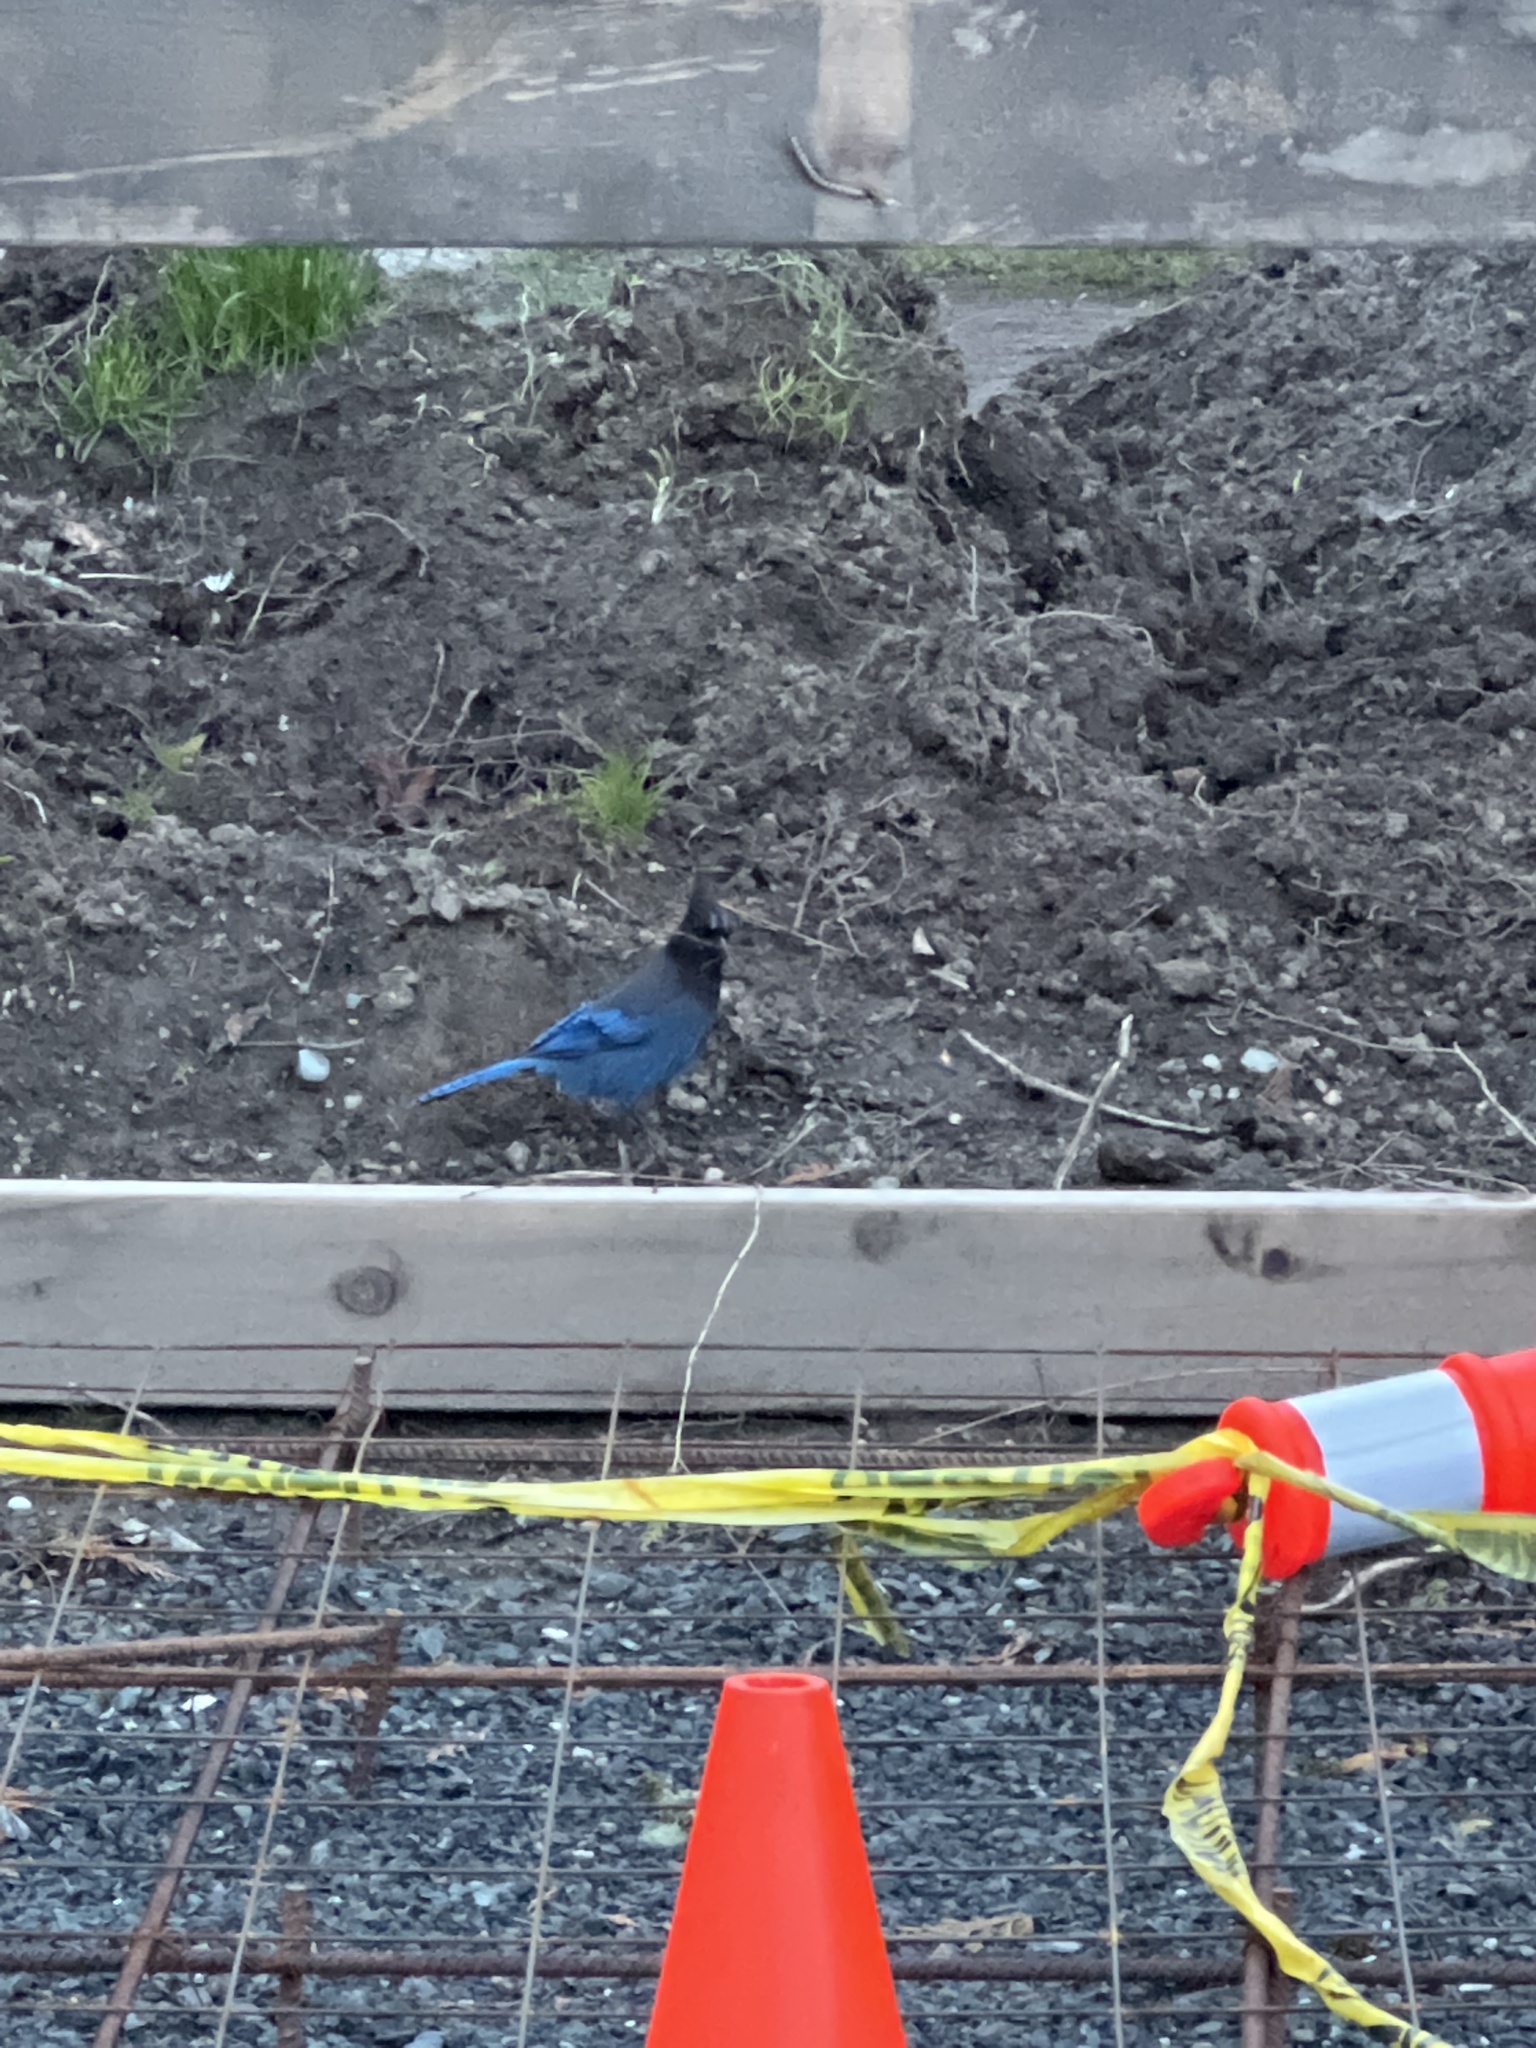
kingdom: Animalia
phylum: Chordata
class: Aves
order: Passeriformes
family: Corvidae
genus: Cyanocitta
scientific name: Cyanocitta stelleri
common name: Steller's jay
